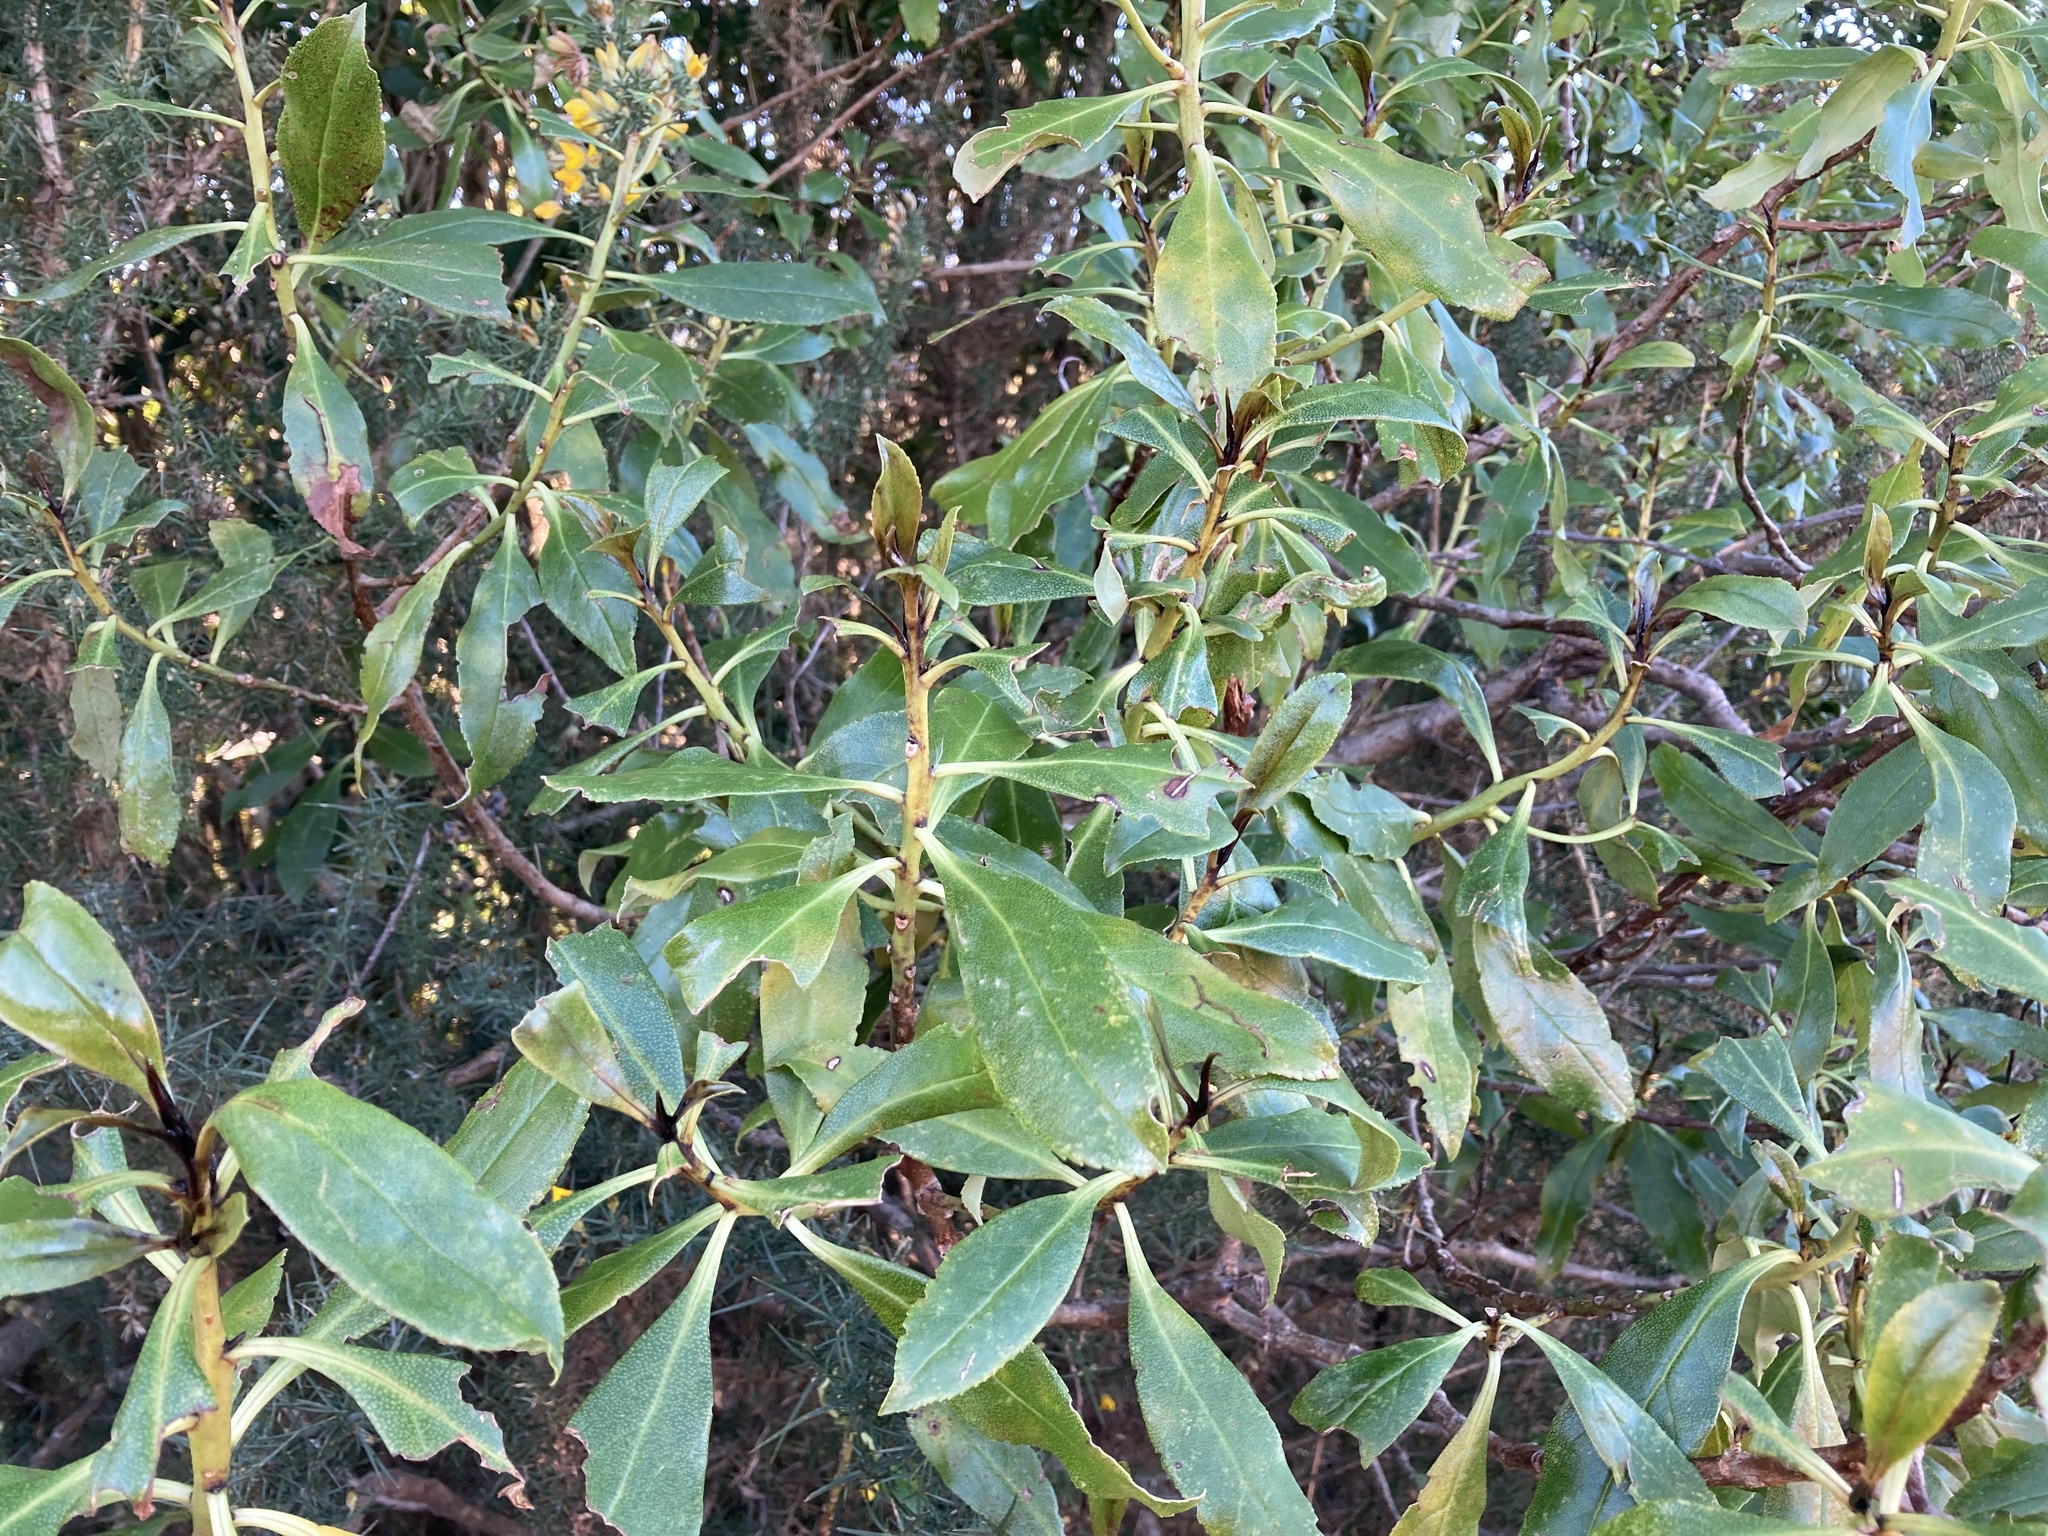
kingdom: Plantae
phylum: Tracheophyta
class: Magnoliopsida
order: Lamiales
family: Scrophulariaceae
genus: Myoporum
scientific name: Myoporum laetum
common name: Ngaio tree
